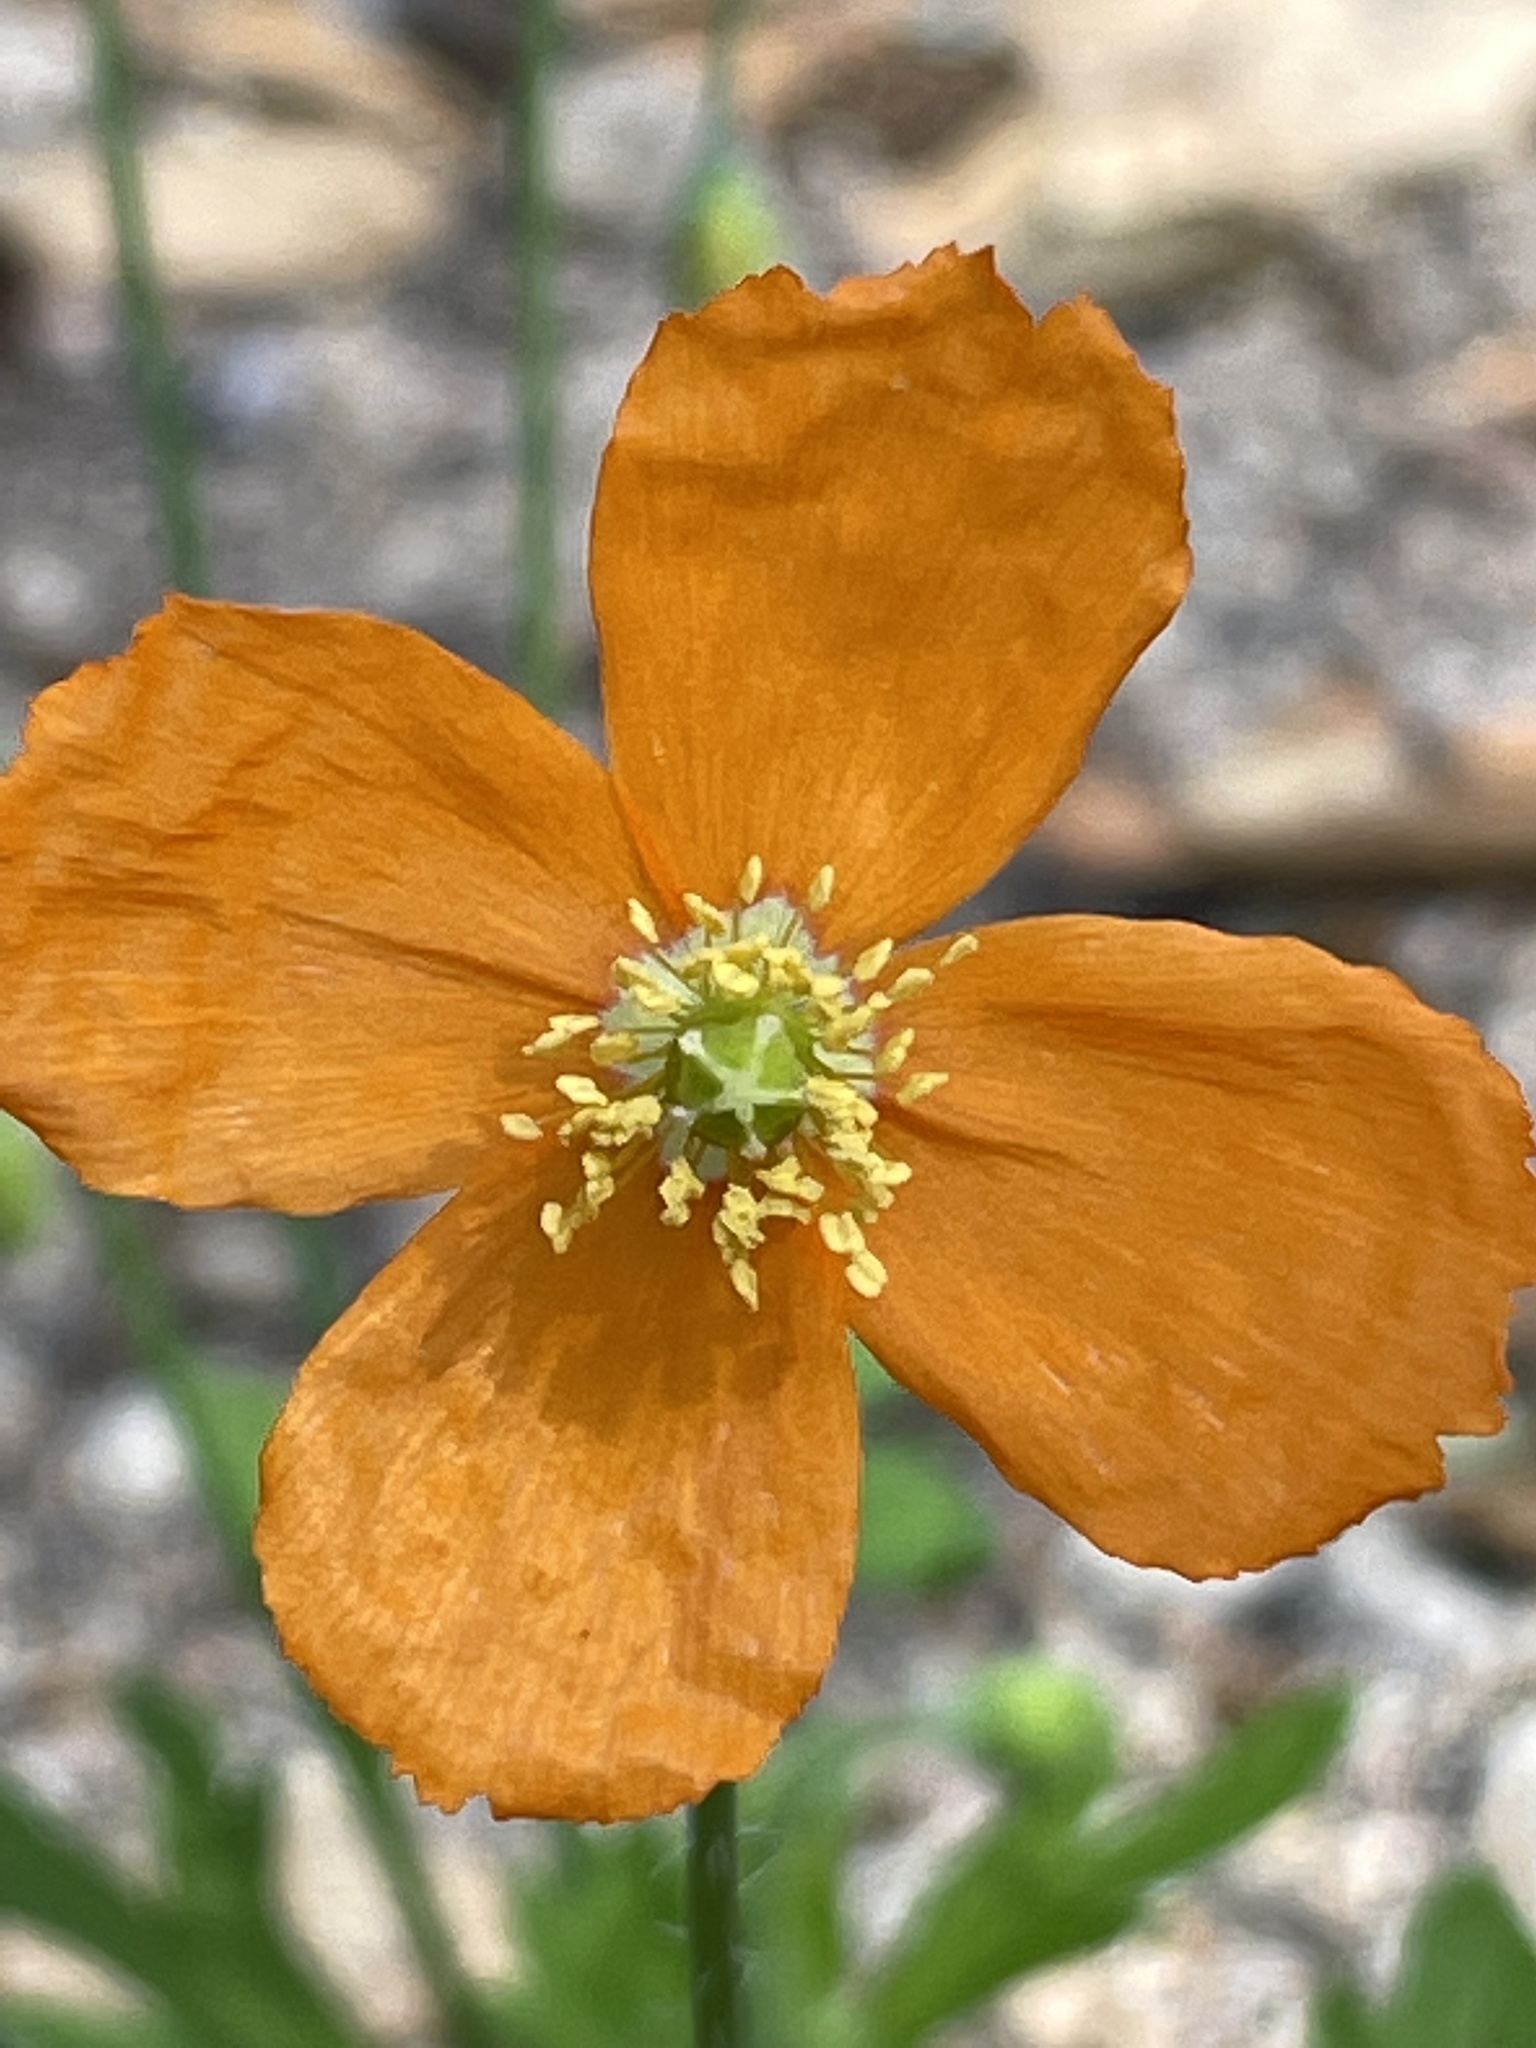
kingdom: Plantae
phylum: Tracheophyta
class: Magnoliopsida
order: Ranunculales
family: Papaveraceae
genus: Papaver
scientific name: Papaver californicum
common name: Fire poppy
